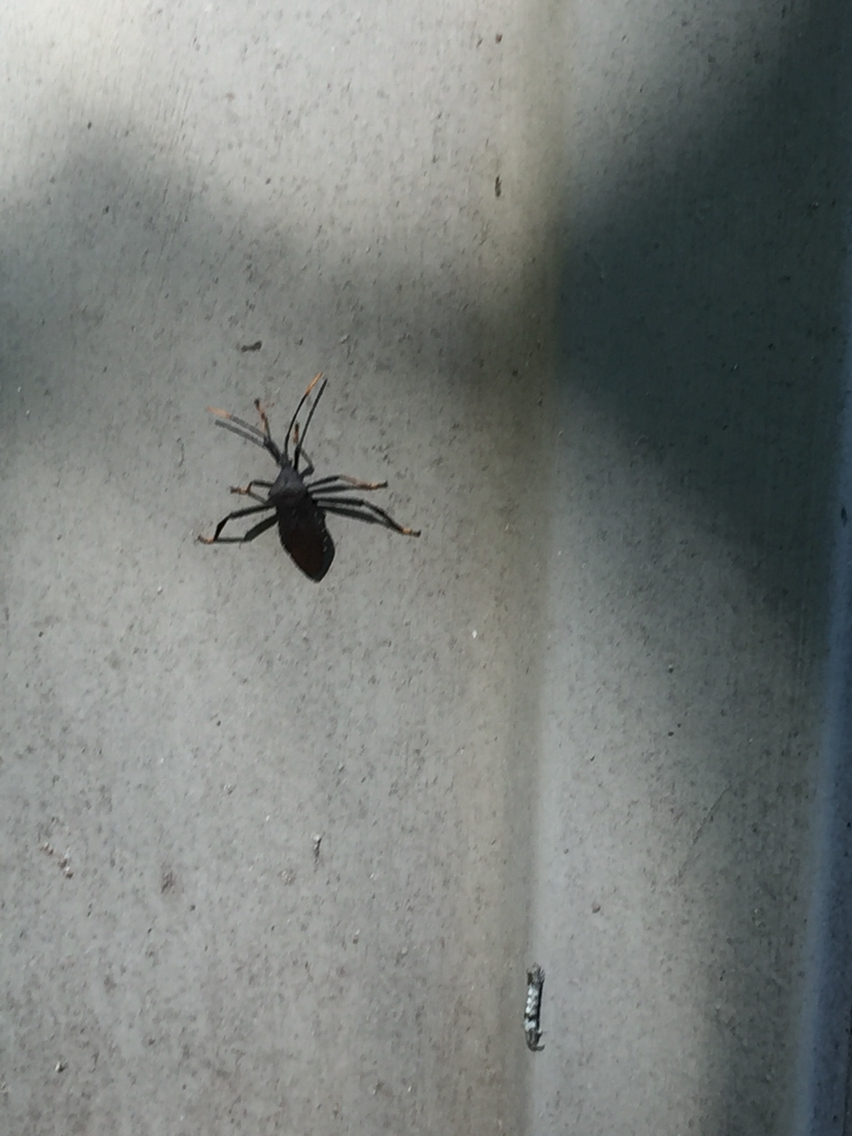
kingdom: Animalia
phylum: Arthropoda
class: Insecta
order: Hemiptera
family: Coreidae
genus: Acanthocephala
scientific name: Acanthocephala terminalis
